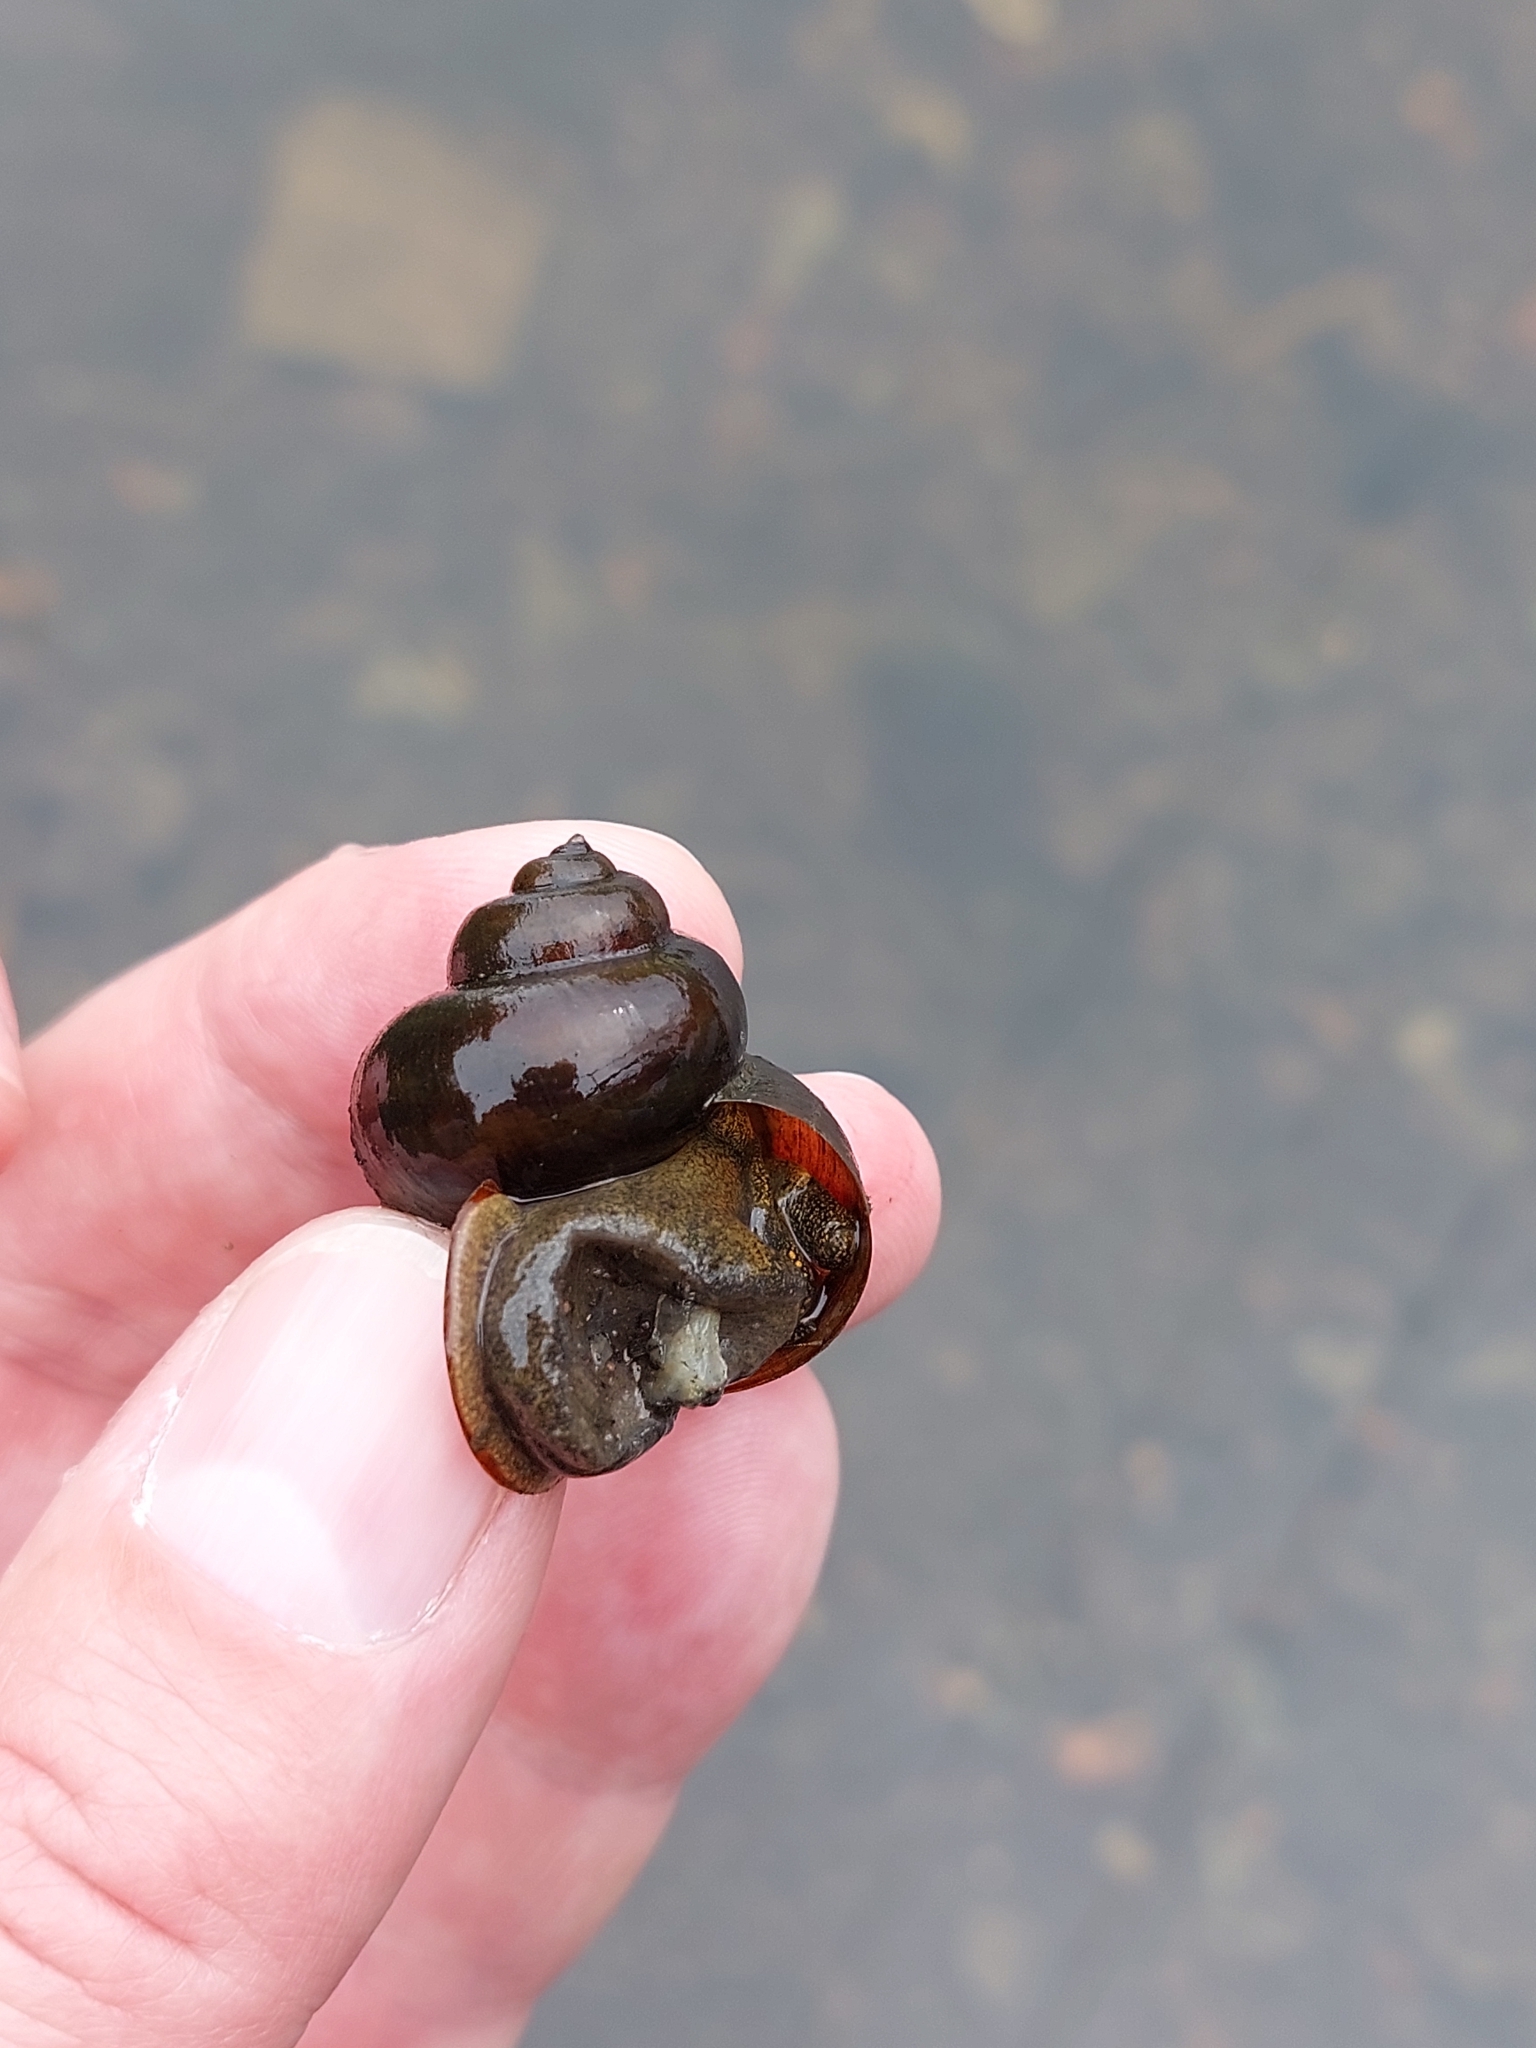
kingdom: Animalia
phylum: Mollusca
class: Gastropoda
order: Architaenioglossa
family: Viviparidae
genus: Viviparus
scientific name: Viviparus contectus
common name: Lister's river snail
